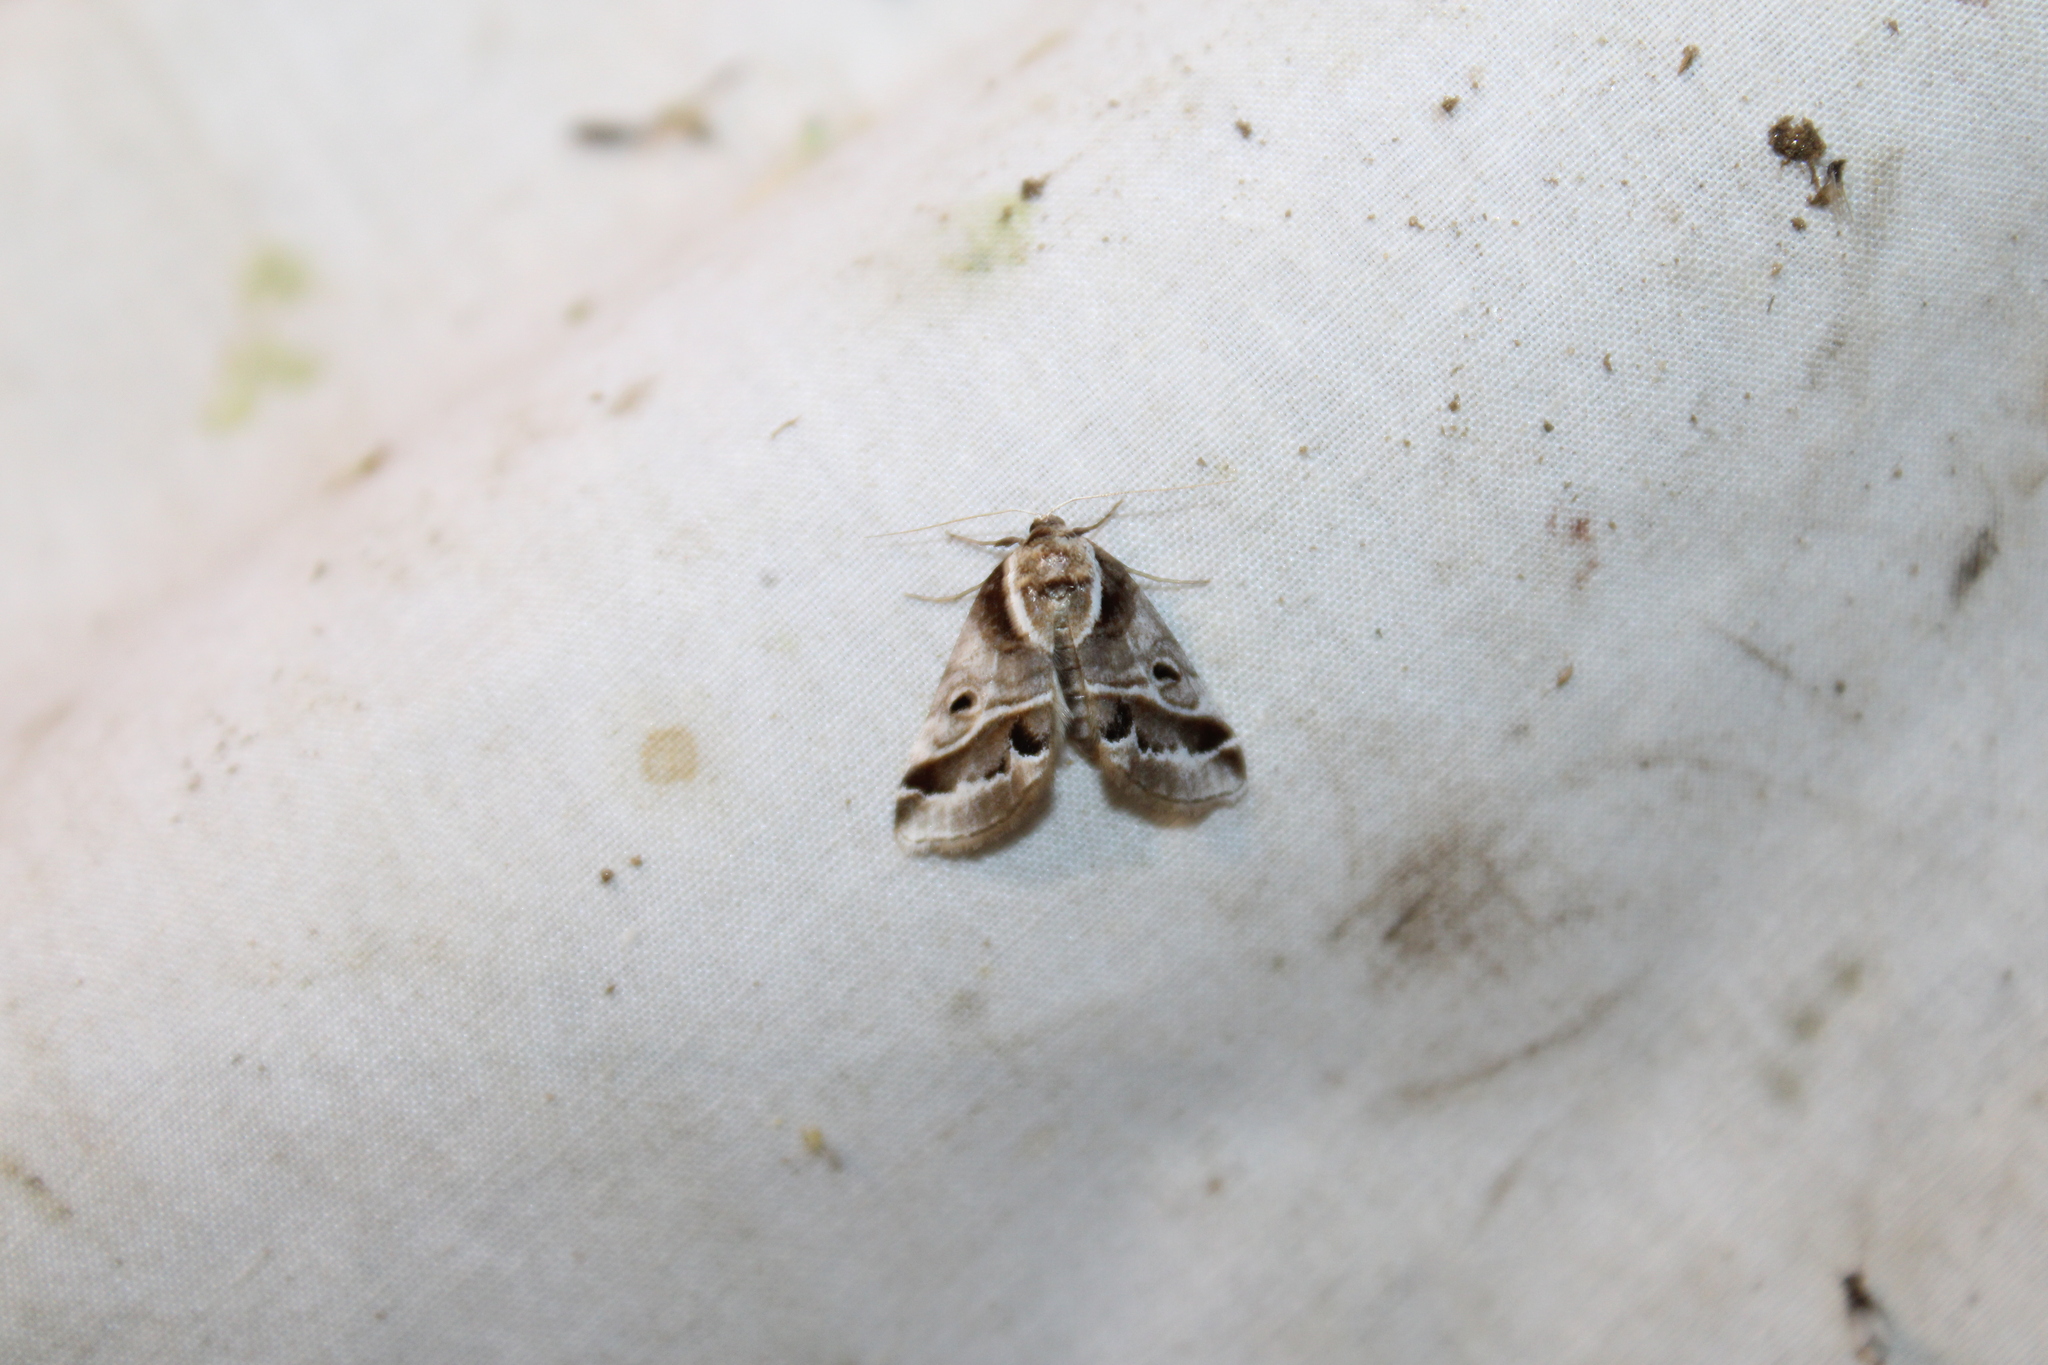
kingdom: Animalia
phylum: Arthropoda
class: Insecta
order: Lepidoptera
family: Nolidae
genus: Baileya
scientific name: Baileya doubledayi
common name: Doubleday's baileya moth
